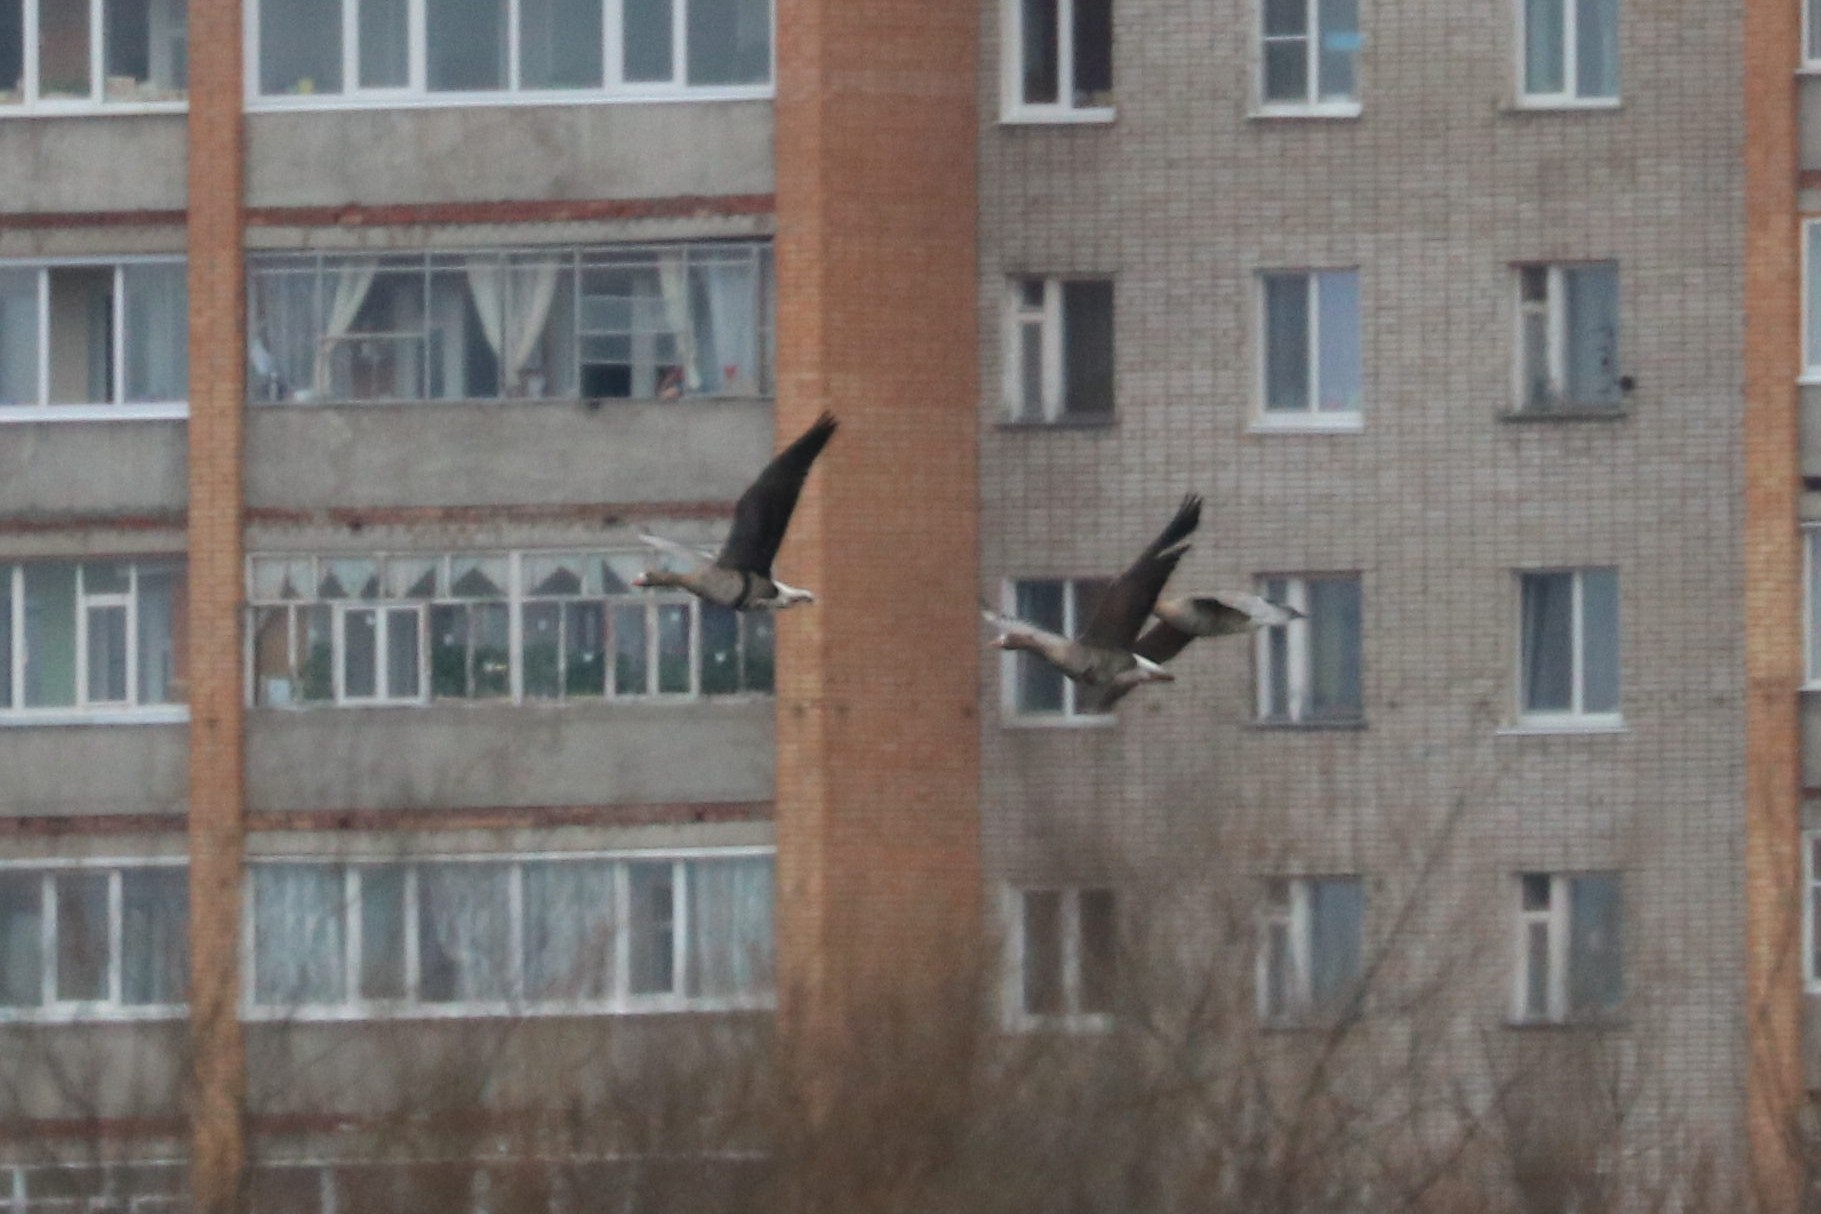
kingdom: Animalia
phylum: Chordata
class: Aves
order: Anseriformes
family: Anatidae
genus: Anser
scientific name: Anser albifrons
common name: Greater white-fronted goose
